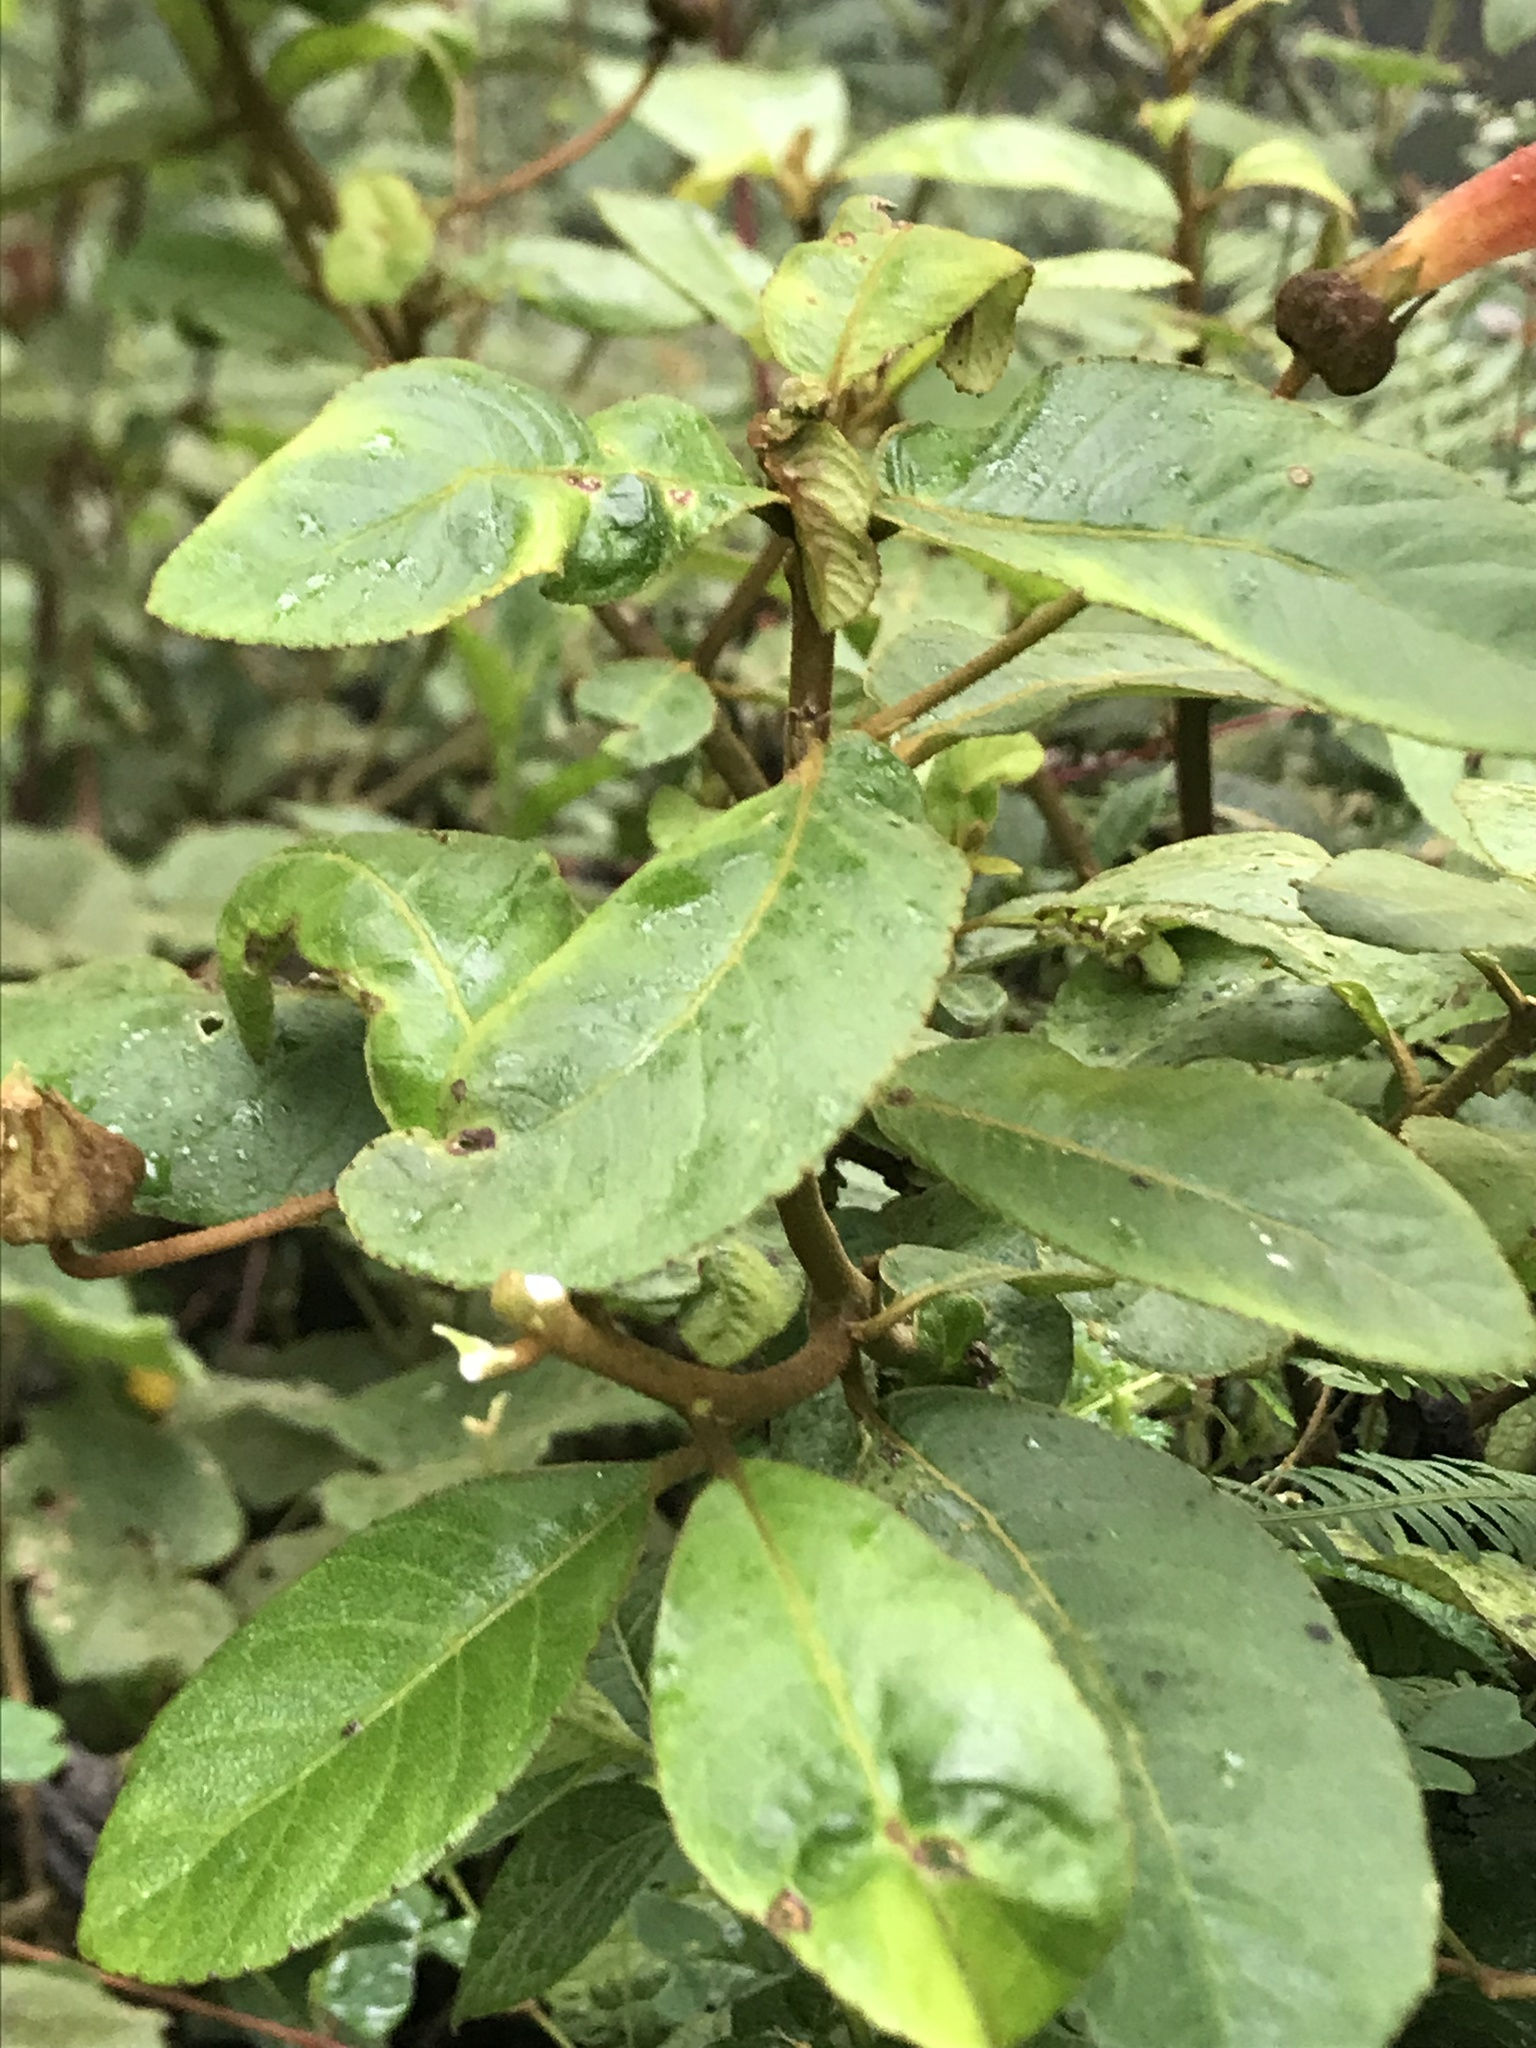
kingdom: Plantae
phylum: Tracheophyta
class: Magnoliopsida
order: Asterales
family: Campanulaceae
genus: Centropogon
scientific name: Centropogon ellipticus
